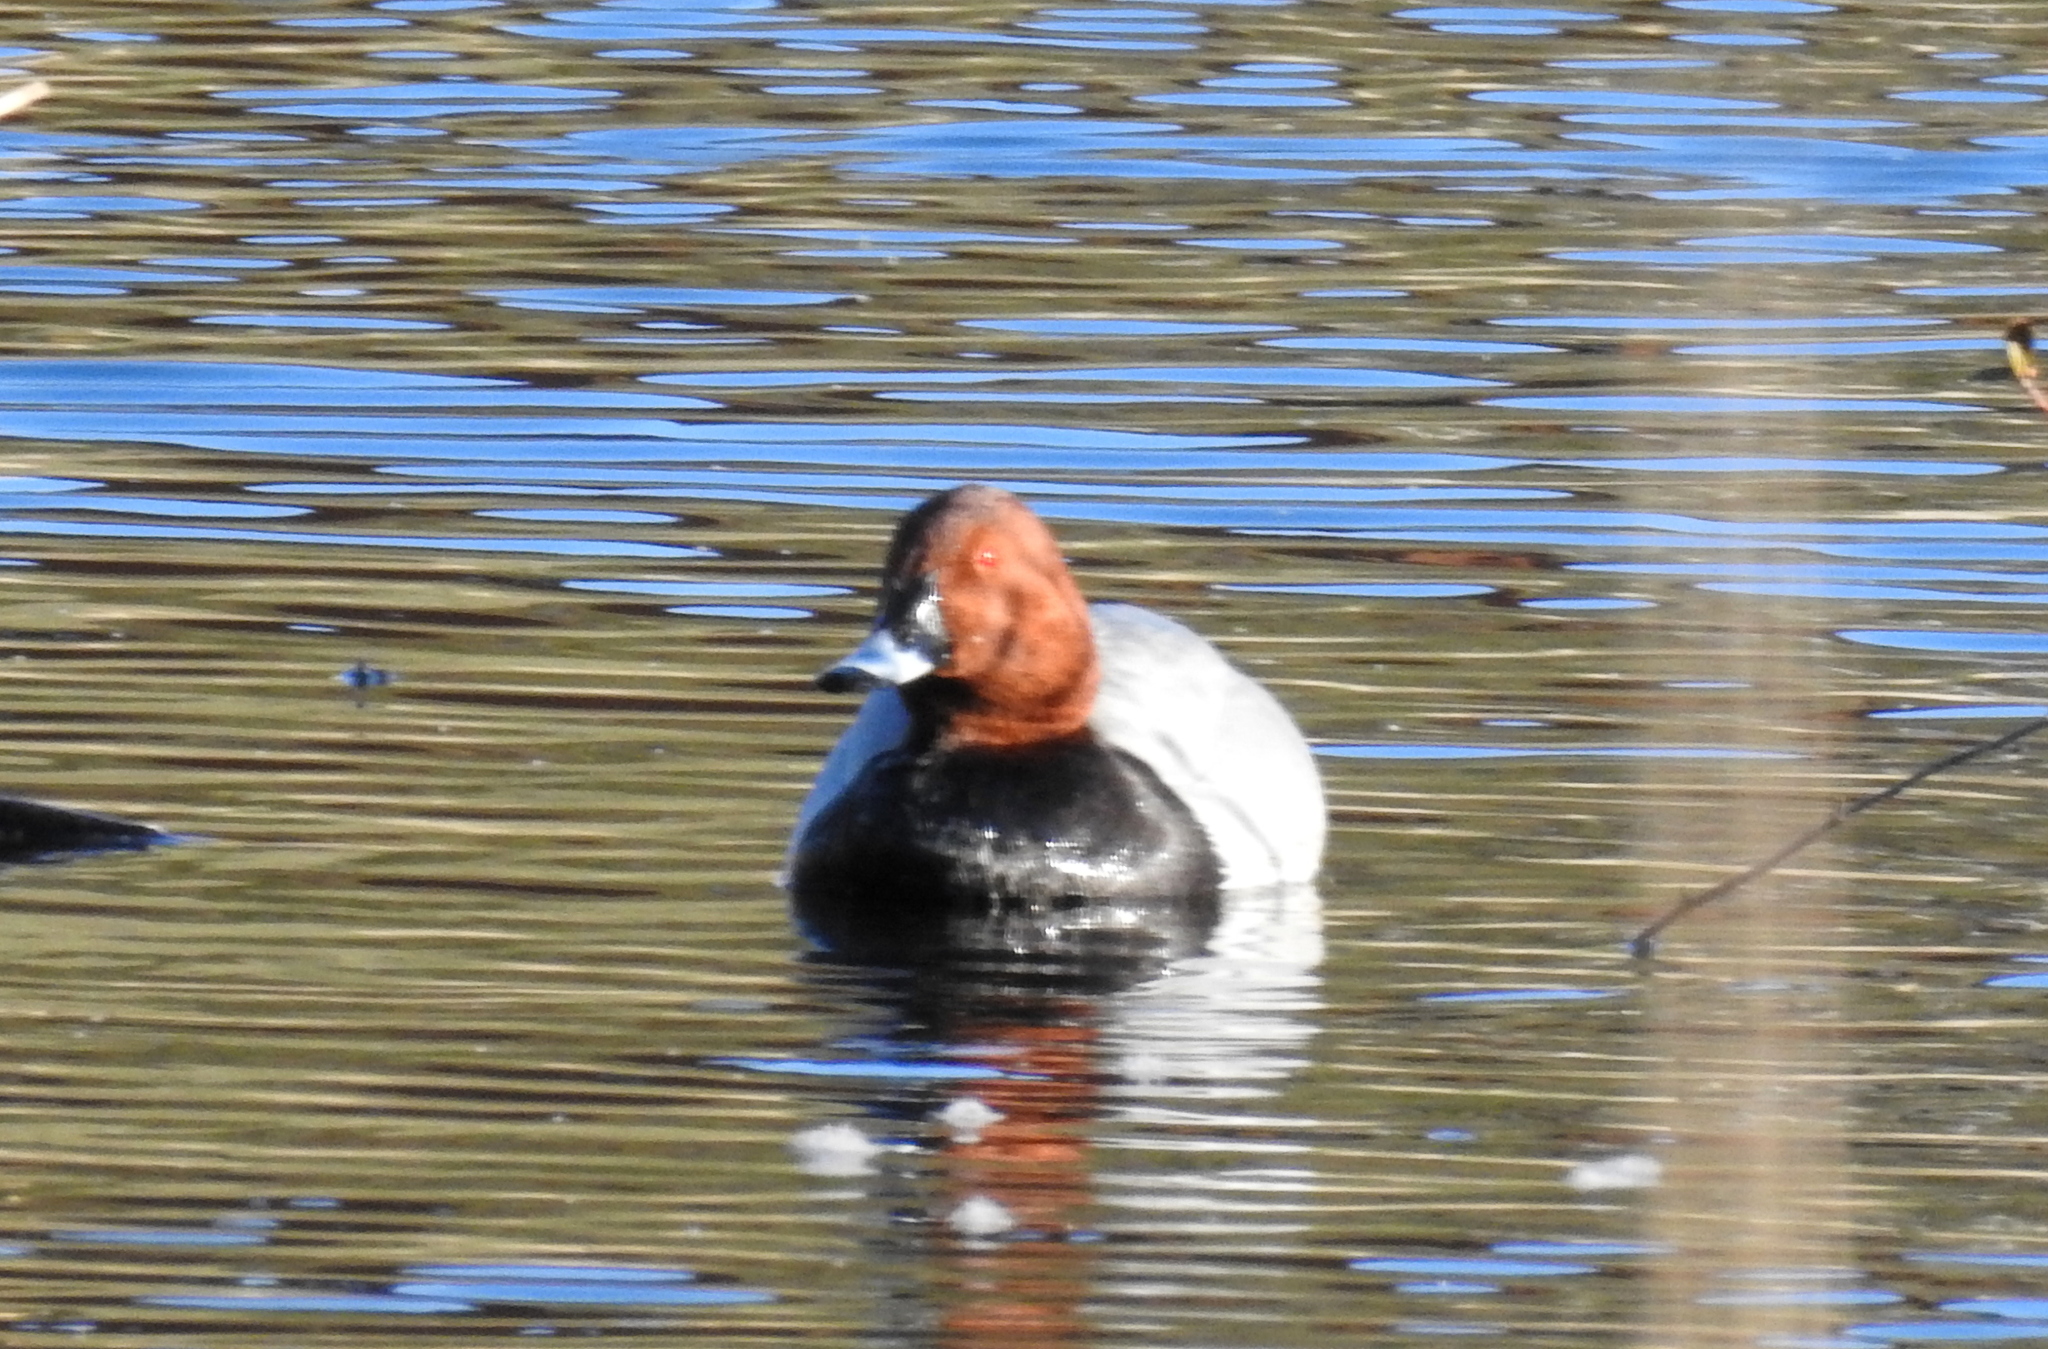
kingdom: Animalia
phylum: Chordata
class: Aves
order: Anseriformes
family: Anatidae
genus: Aythya
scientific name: Aythya ferina
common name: Common pochard
